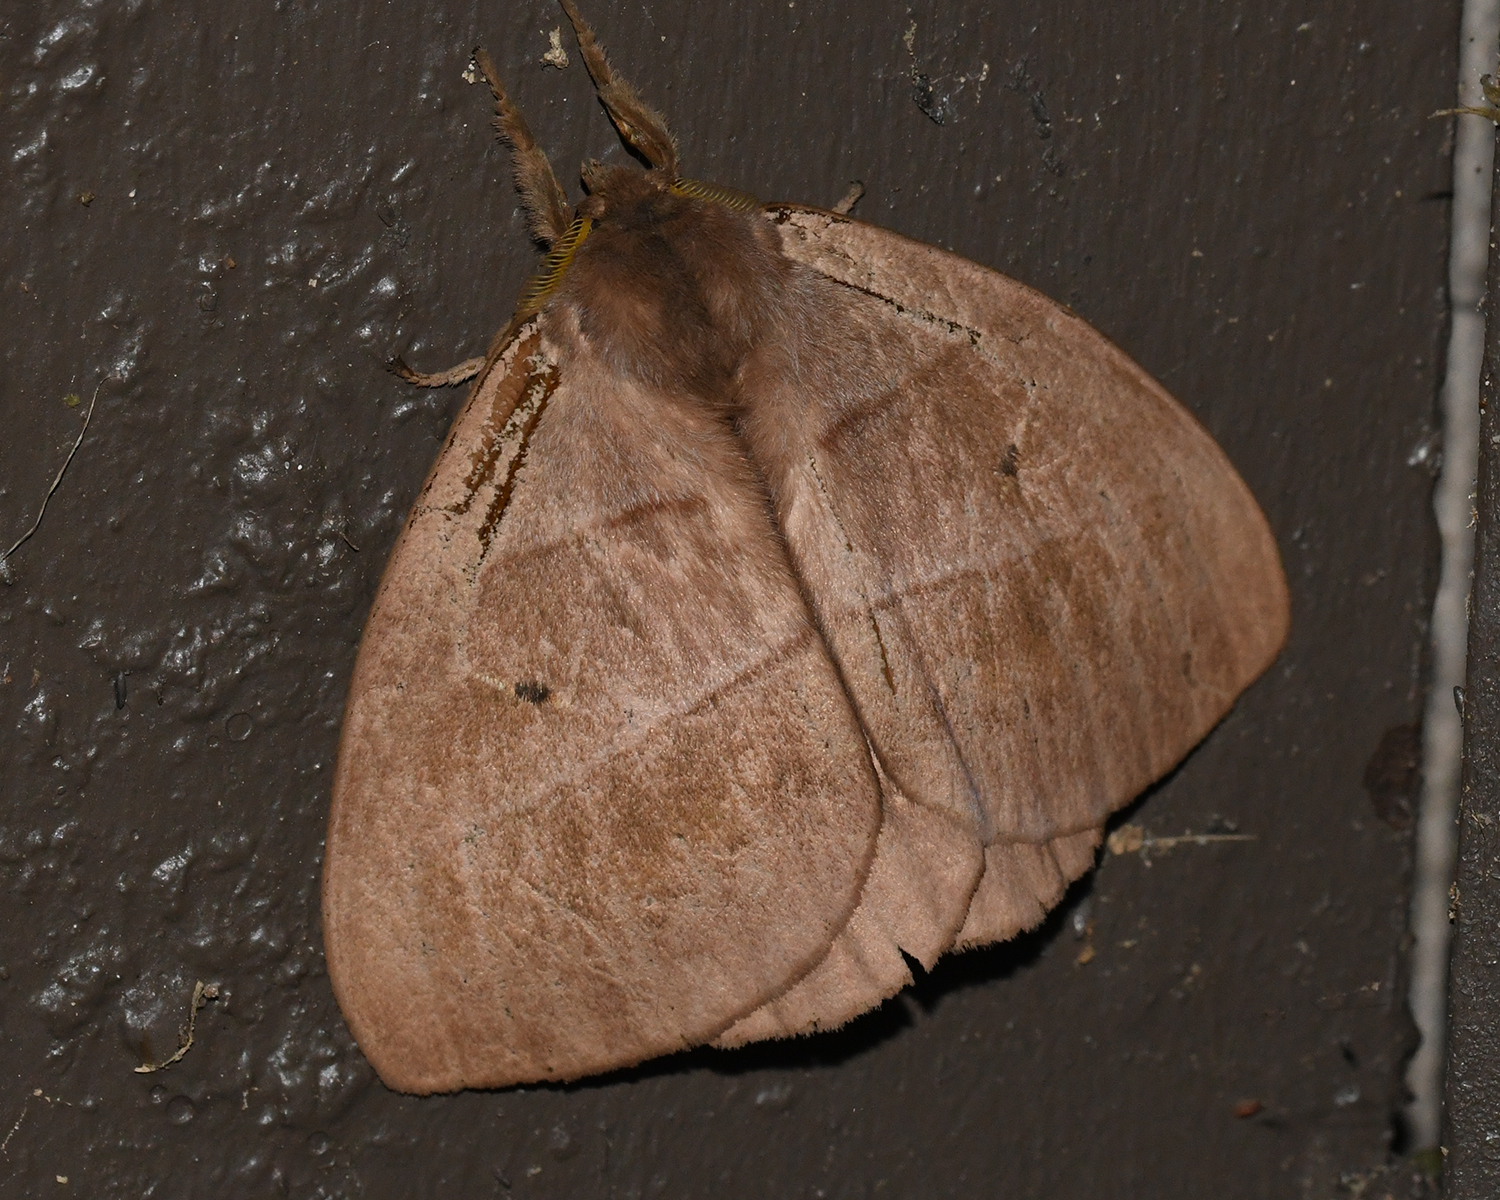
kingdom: Animalia
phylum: Arthropoda
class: Insecta
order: Lepidoptera
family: Saturniidae
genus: Periphoba
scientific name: Periphoba augur
